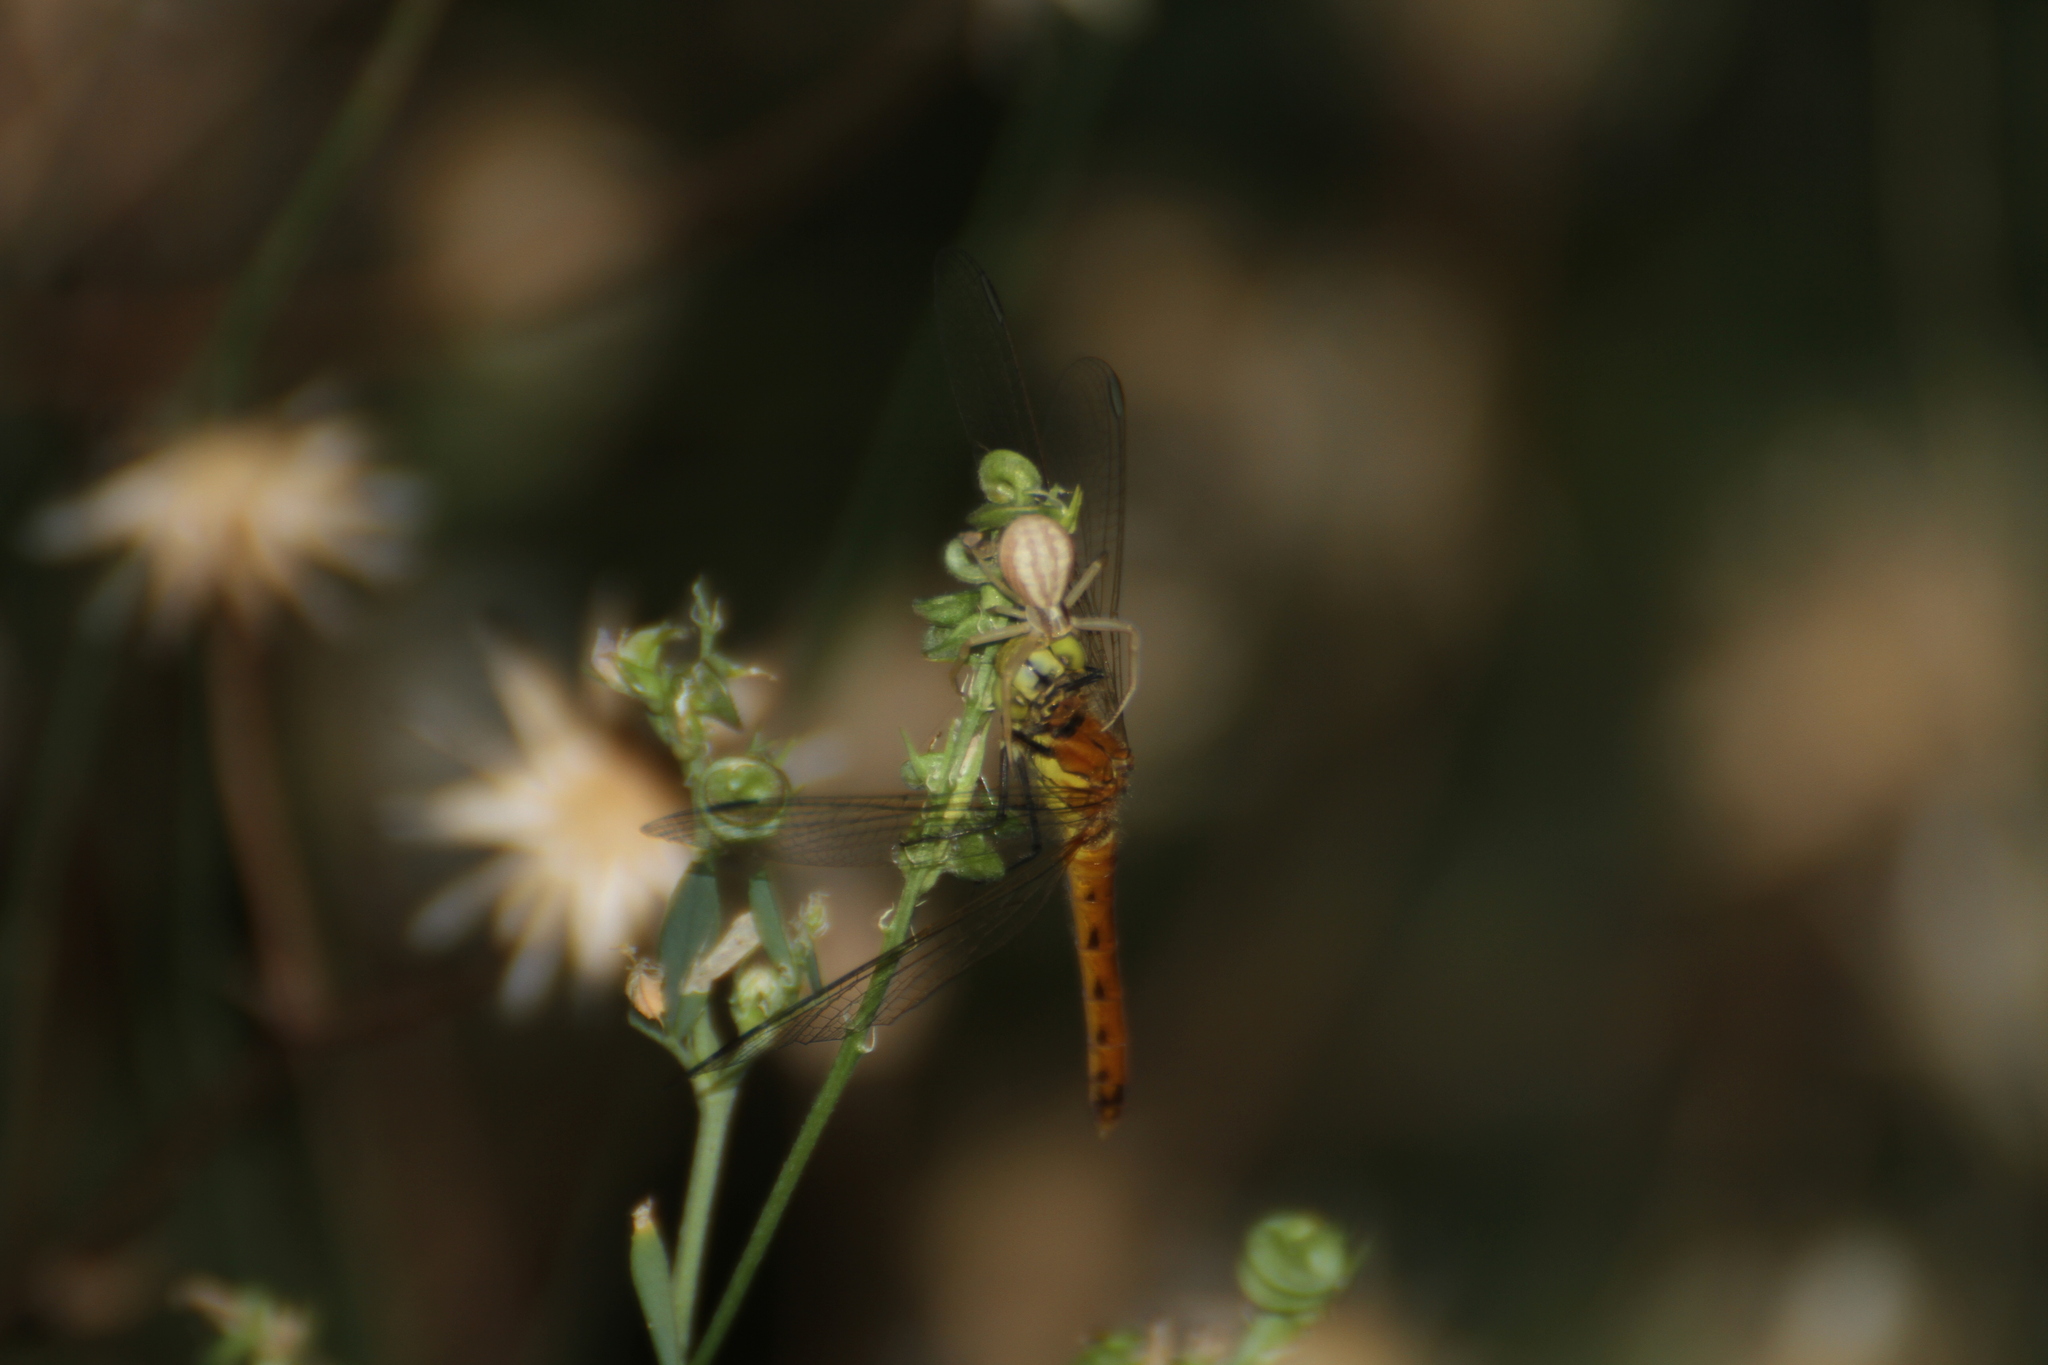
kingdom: Animalia
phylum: Arthropoda
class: Insecta
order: Odonata
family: Libellulidae
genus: Sympetrum
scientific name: Sympetrum depressiusculum
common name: Spotted darter
